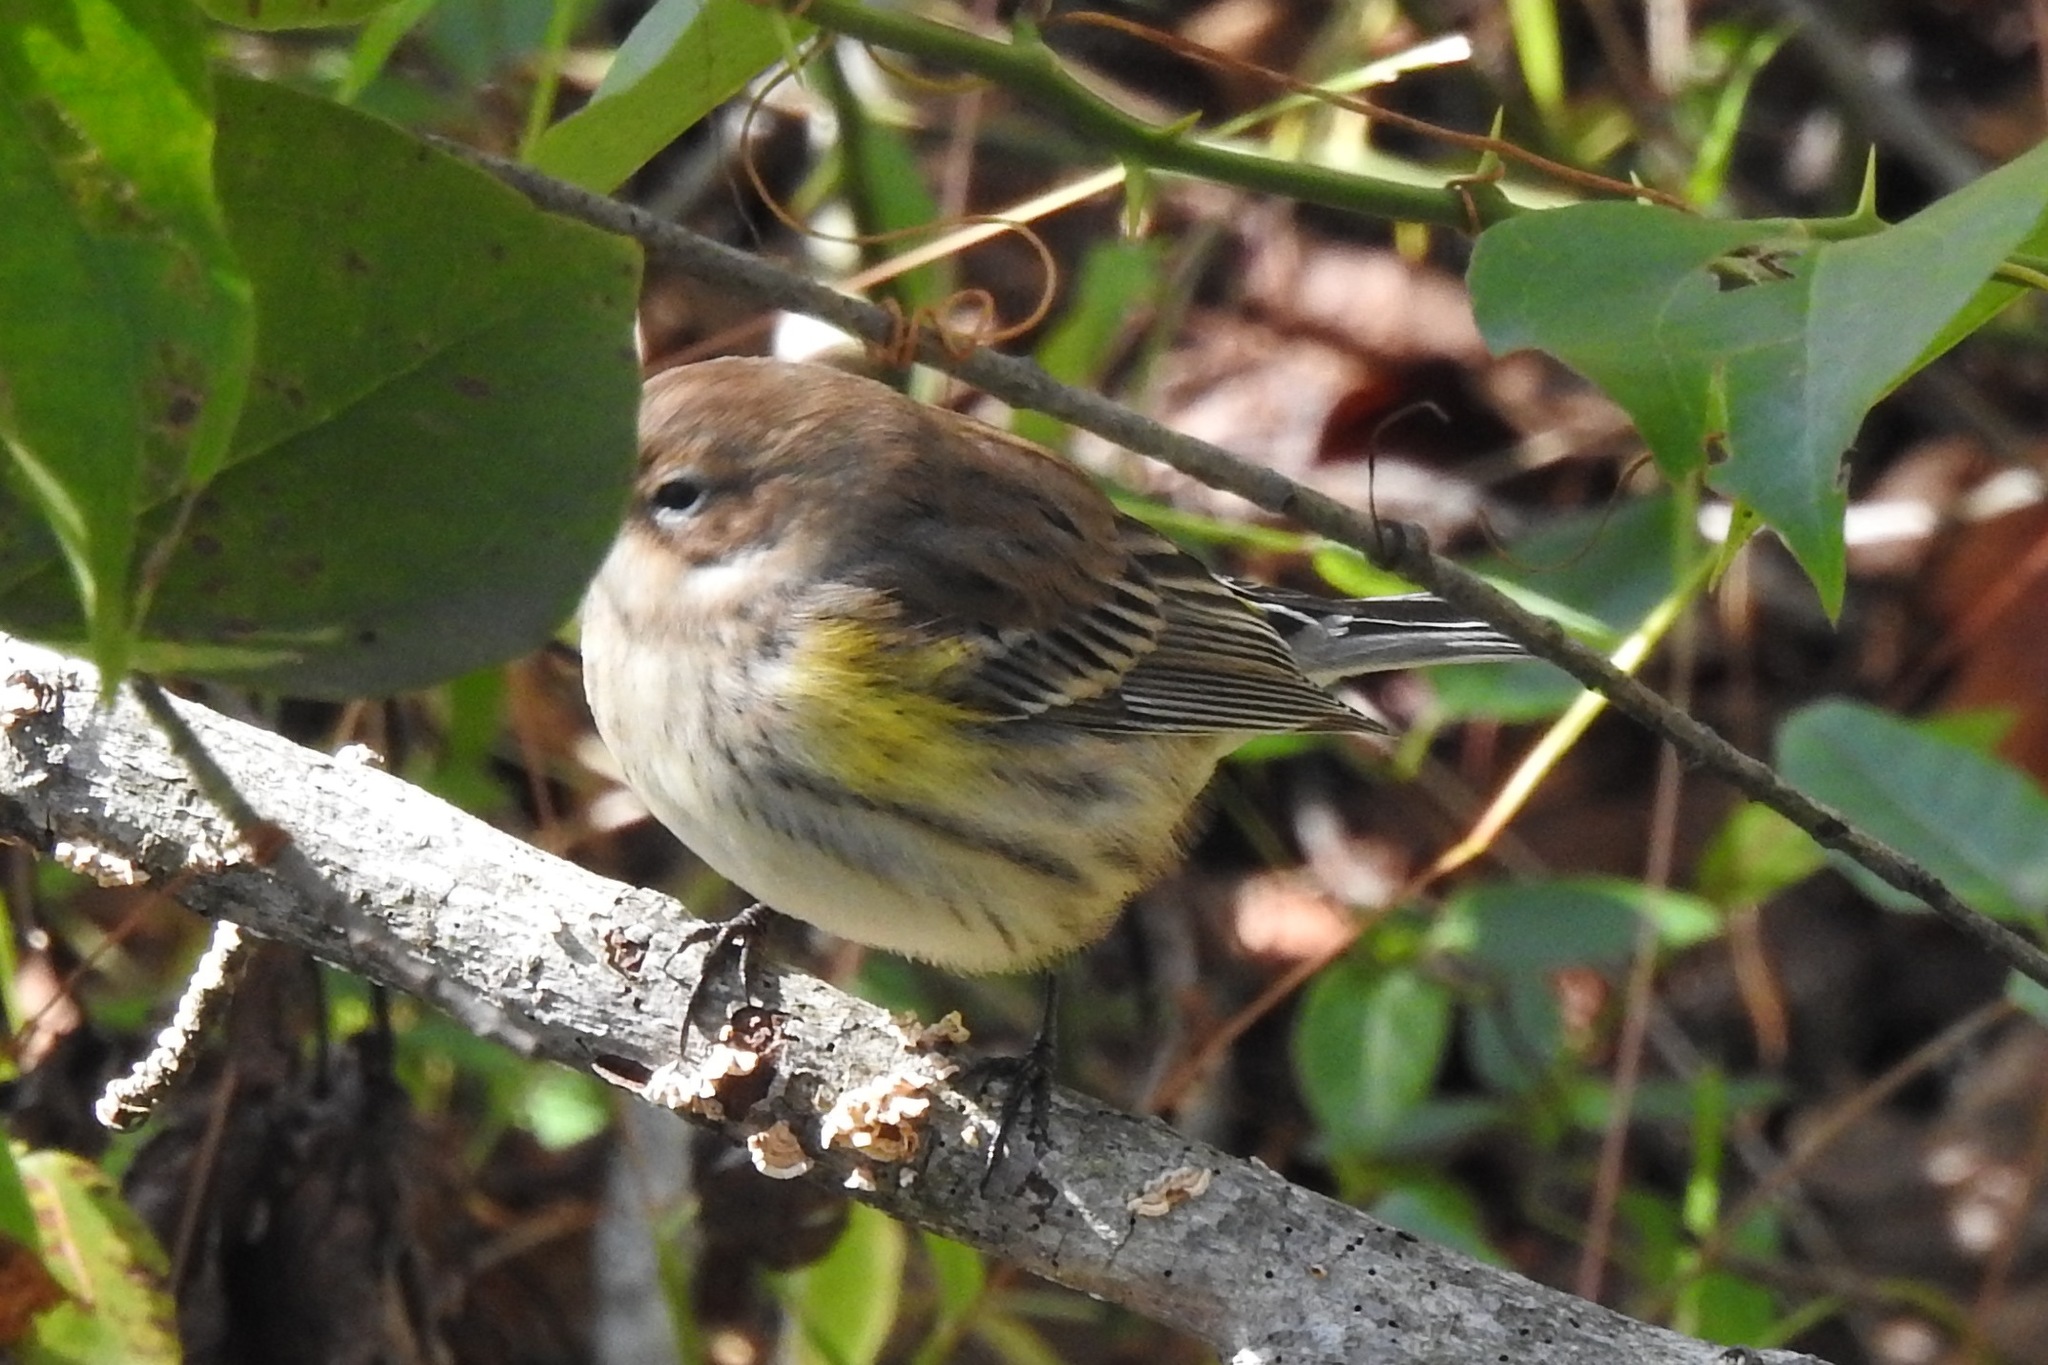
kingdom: Animalia
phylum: Chordata
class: Aves
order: Passeriformes
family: Parulidae
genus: Setophaga
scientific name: Setophaga coronata
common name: Myrtle warbler
